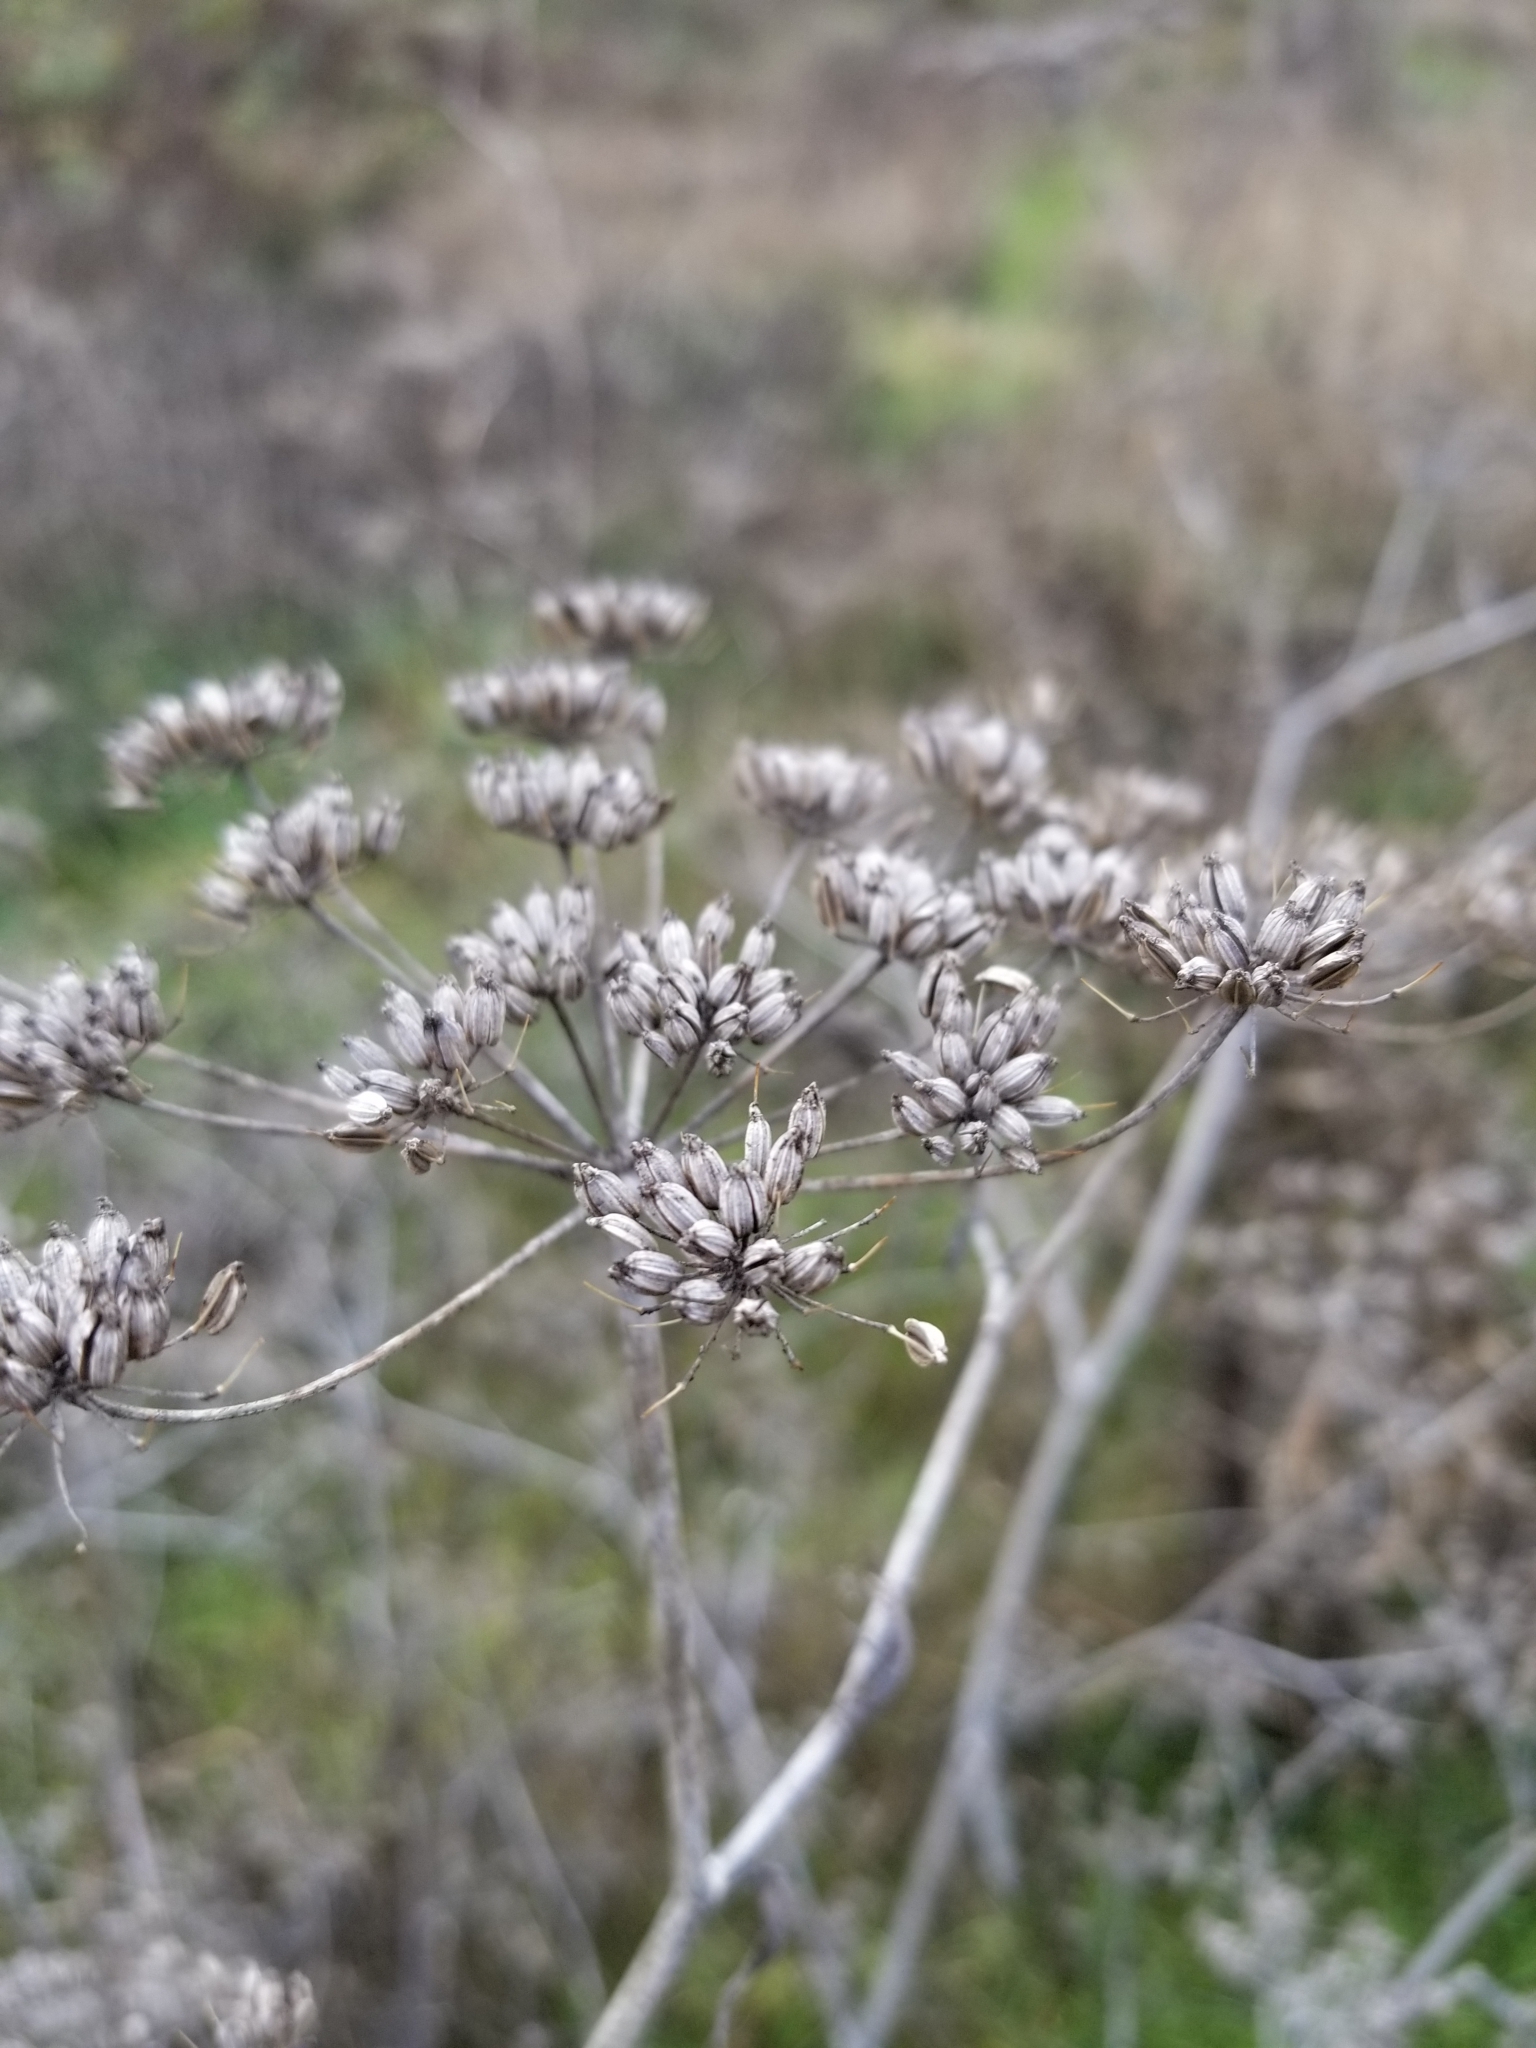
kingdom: Plantae
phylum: Tracheophyta
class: Magnoliopsida
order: Apiales
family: Apiaceae
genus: Foeniculum
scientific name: Foeniculum vulgare
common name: Fennel
